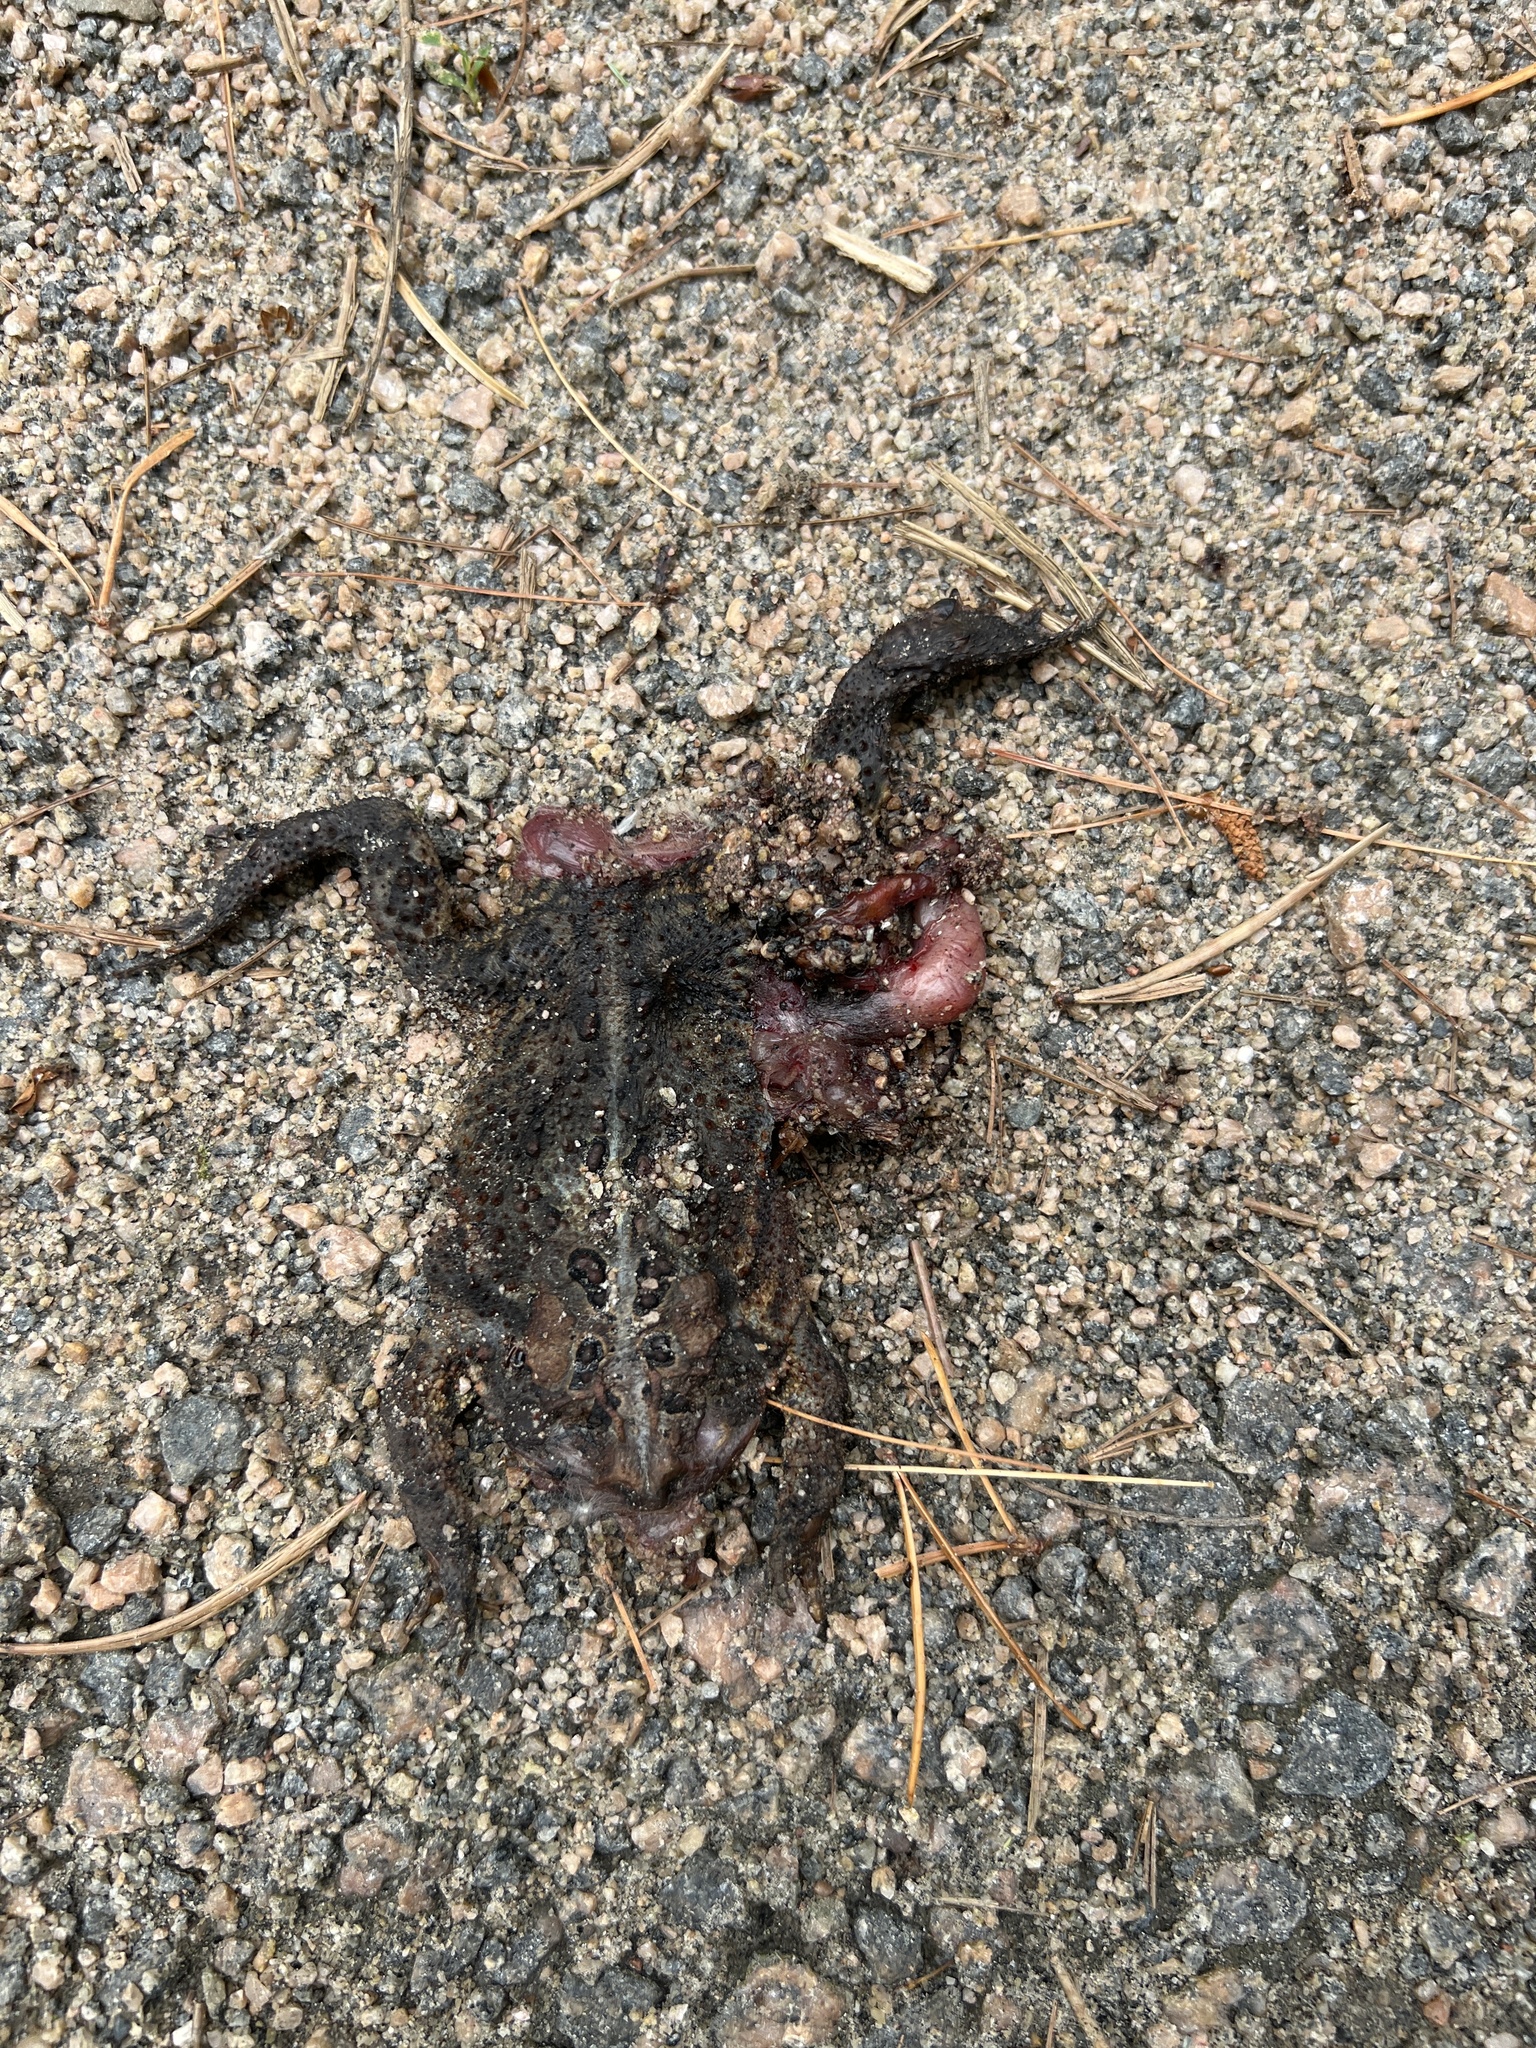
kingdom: Animalia
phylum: Chordata
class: Amphibia
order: Anura
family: Bufonidae
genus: Anaxyrus
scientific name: Anaxyrus americanus
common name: American toad
